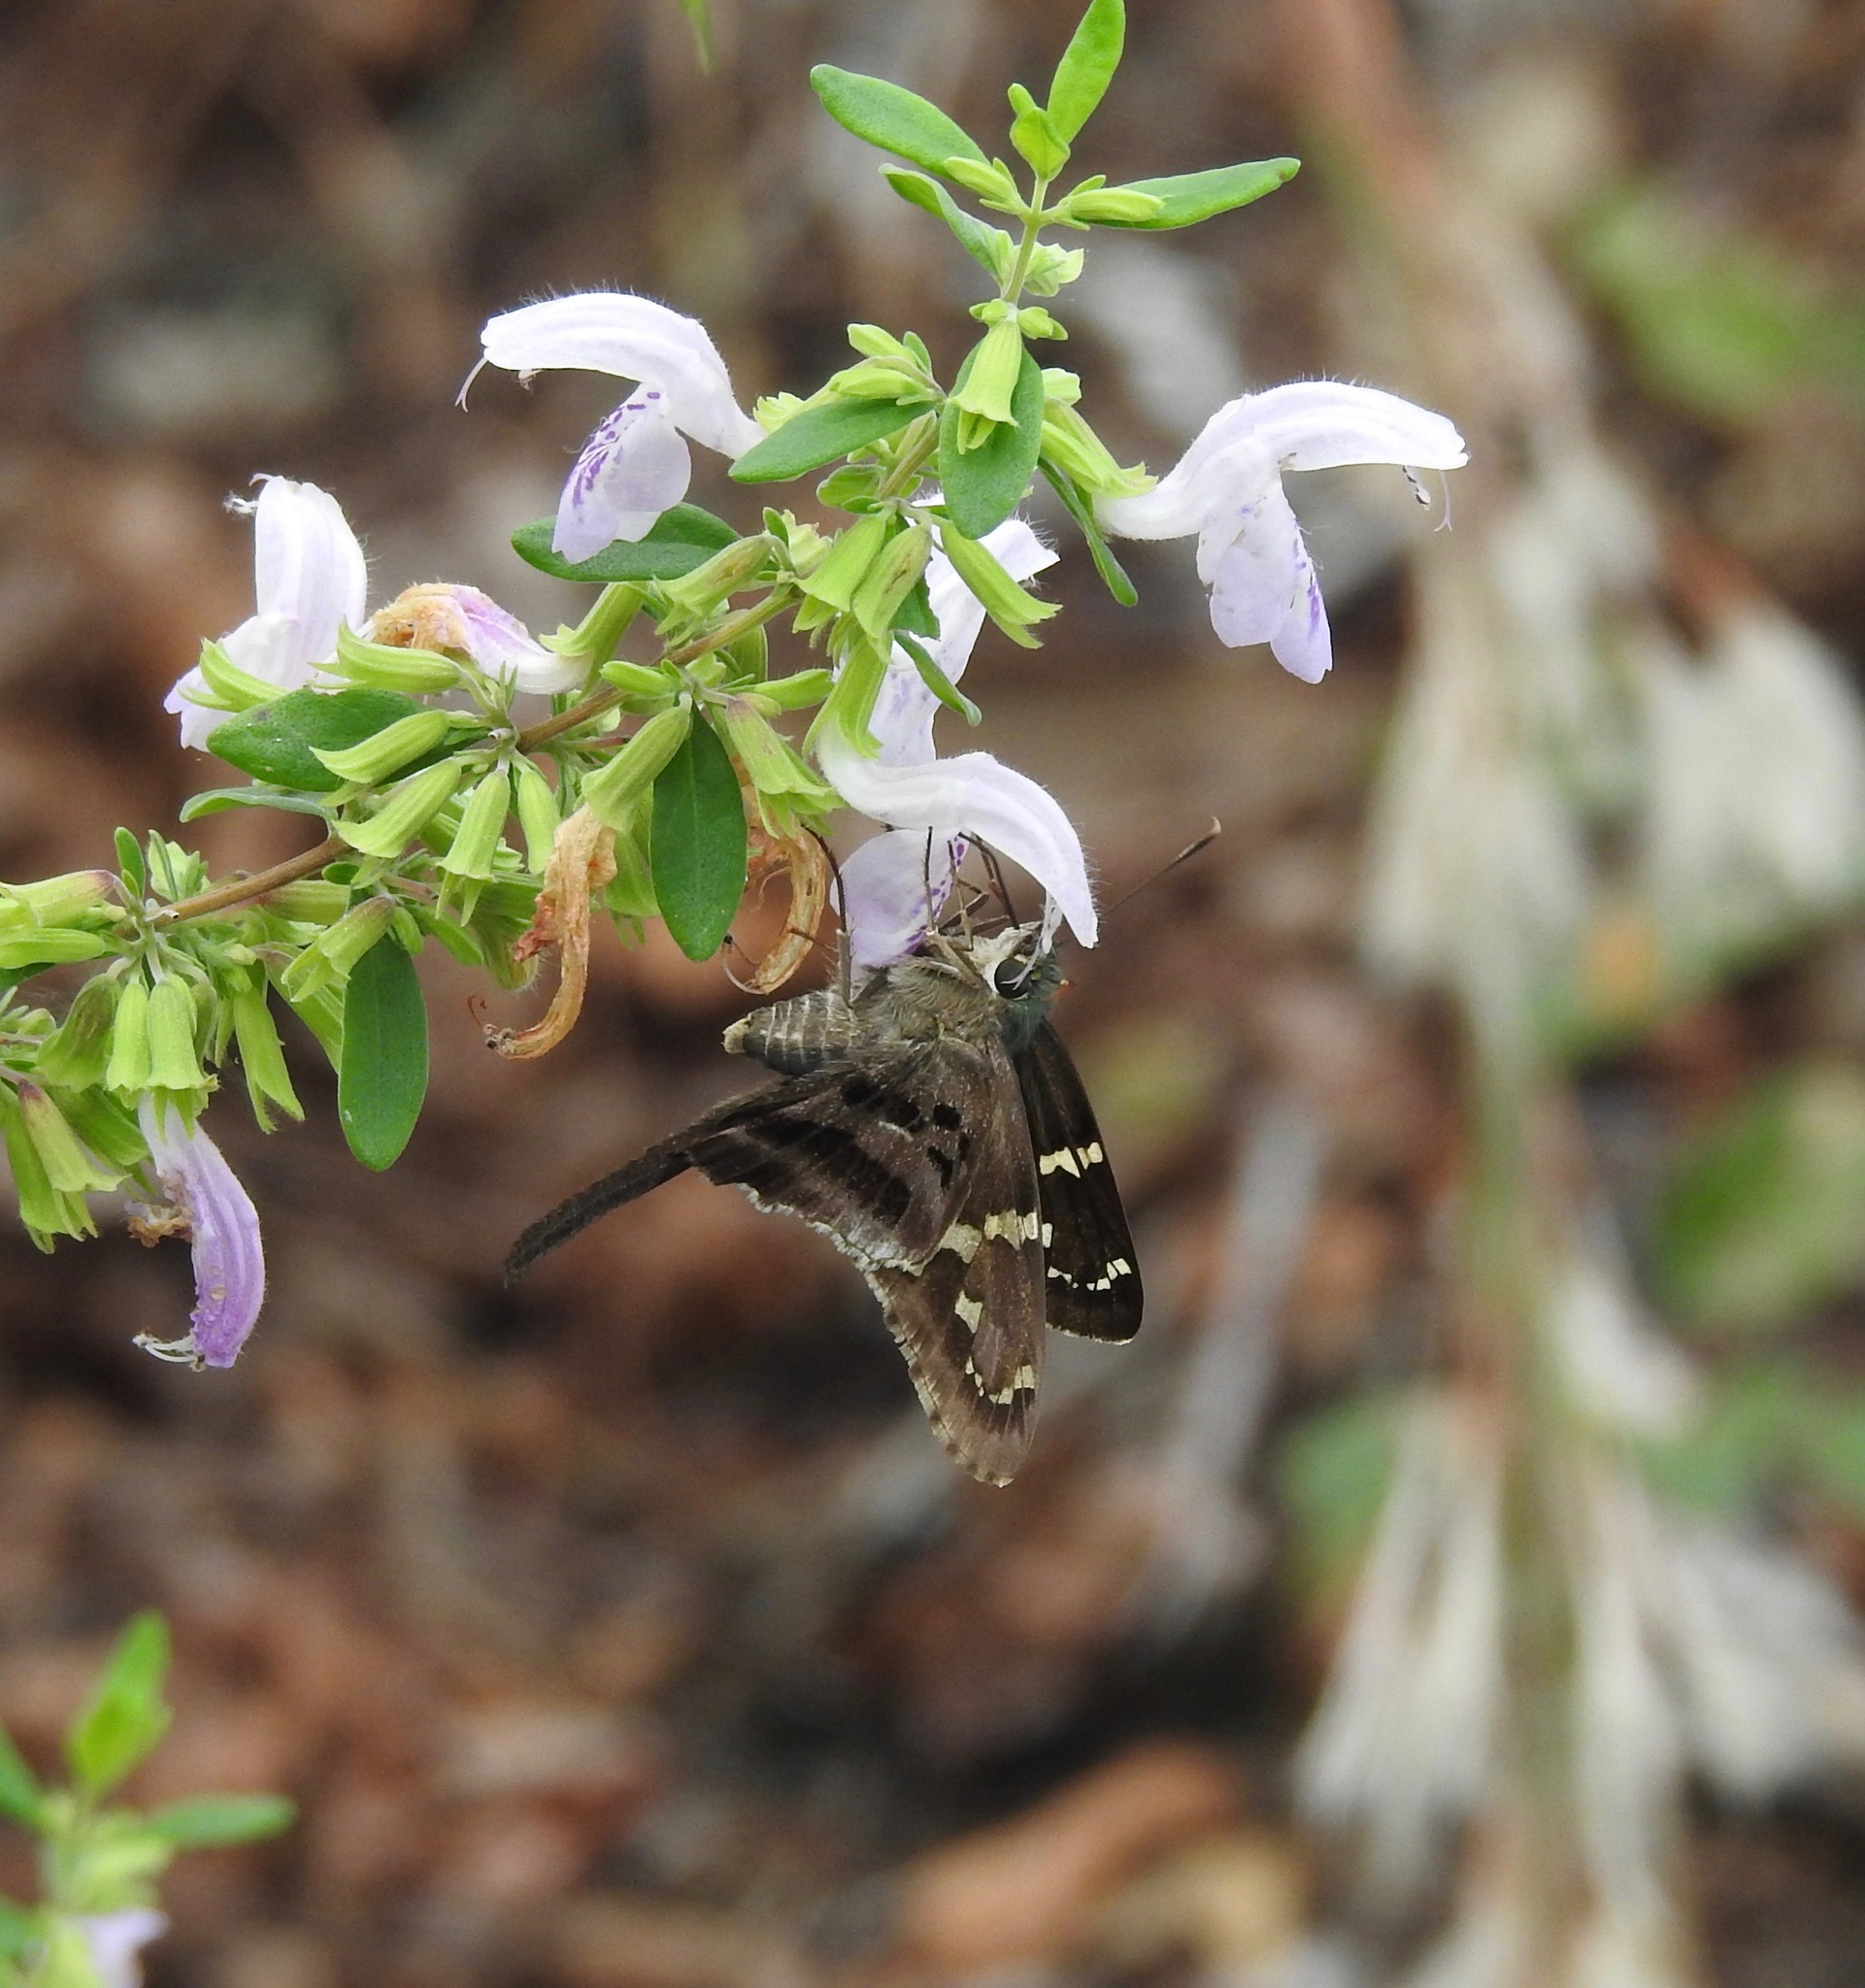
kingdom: Animalia
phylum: Arthropoda
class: Insecta
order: Lepidoptera
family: Hesperiidae
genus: Urbanus
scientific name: Urbanus proteus
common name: Long-tailed skipper
